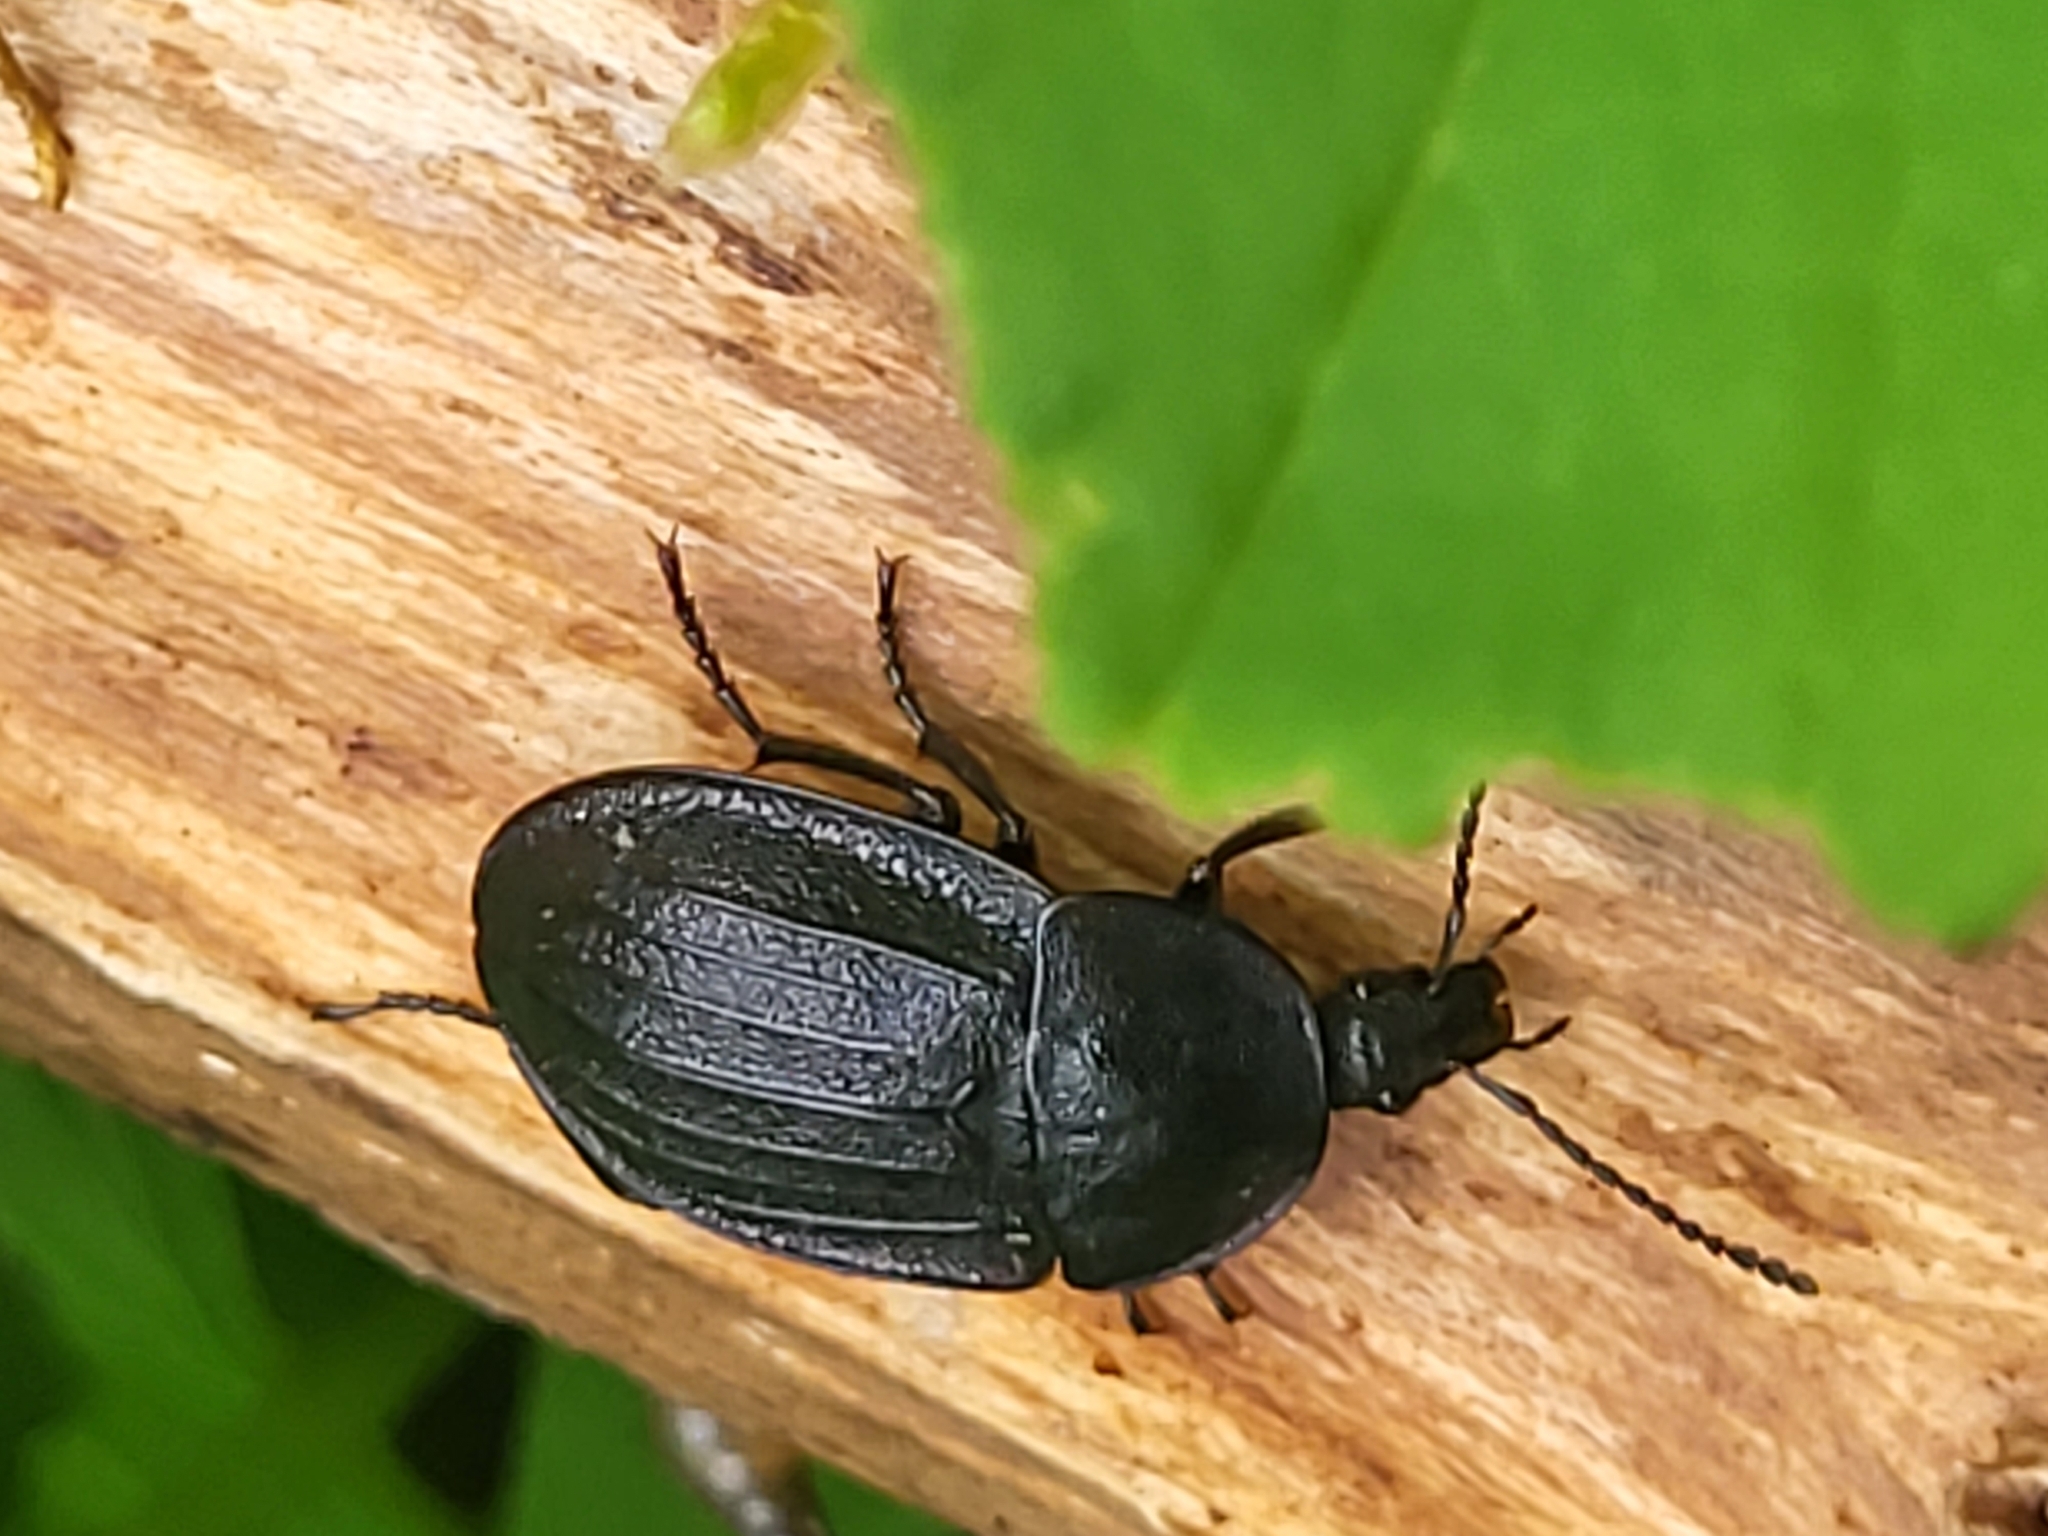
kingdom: Animalia
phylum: Arthropoda
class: Insecta
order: Coleoptera
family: Staphylinidae
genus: Silpha
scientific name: Silpha atrata
